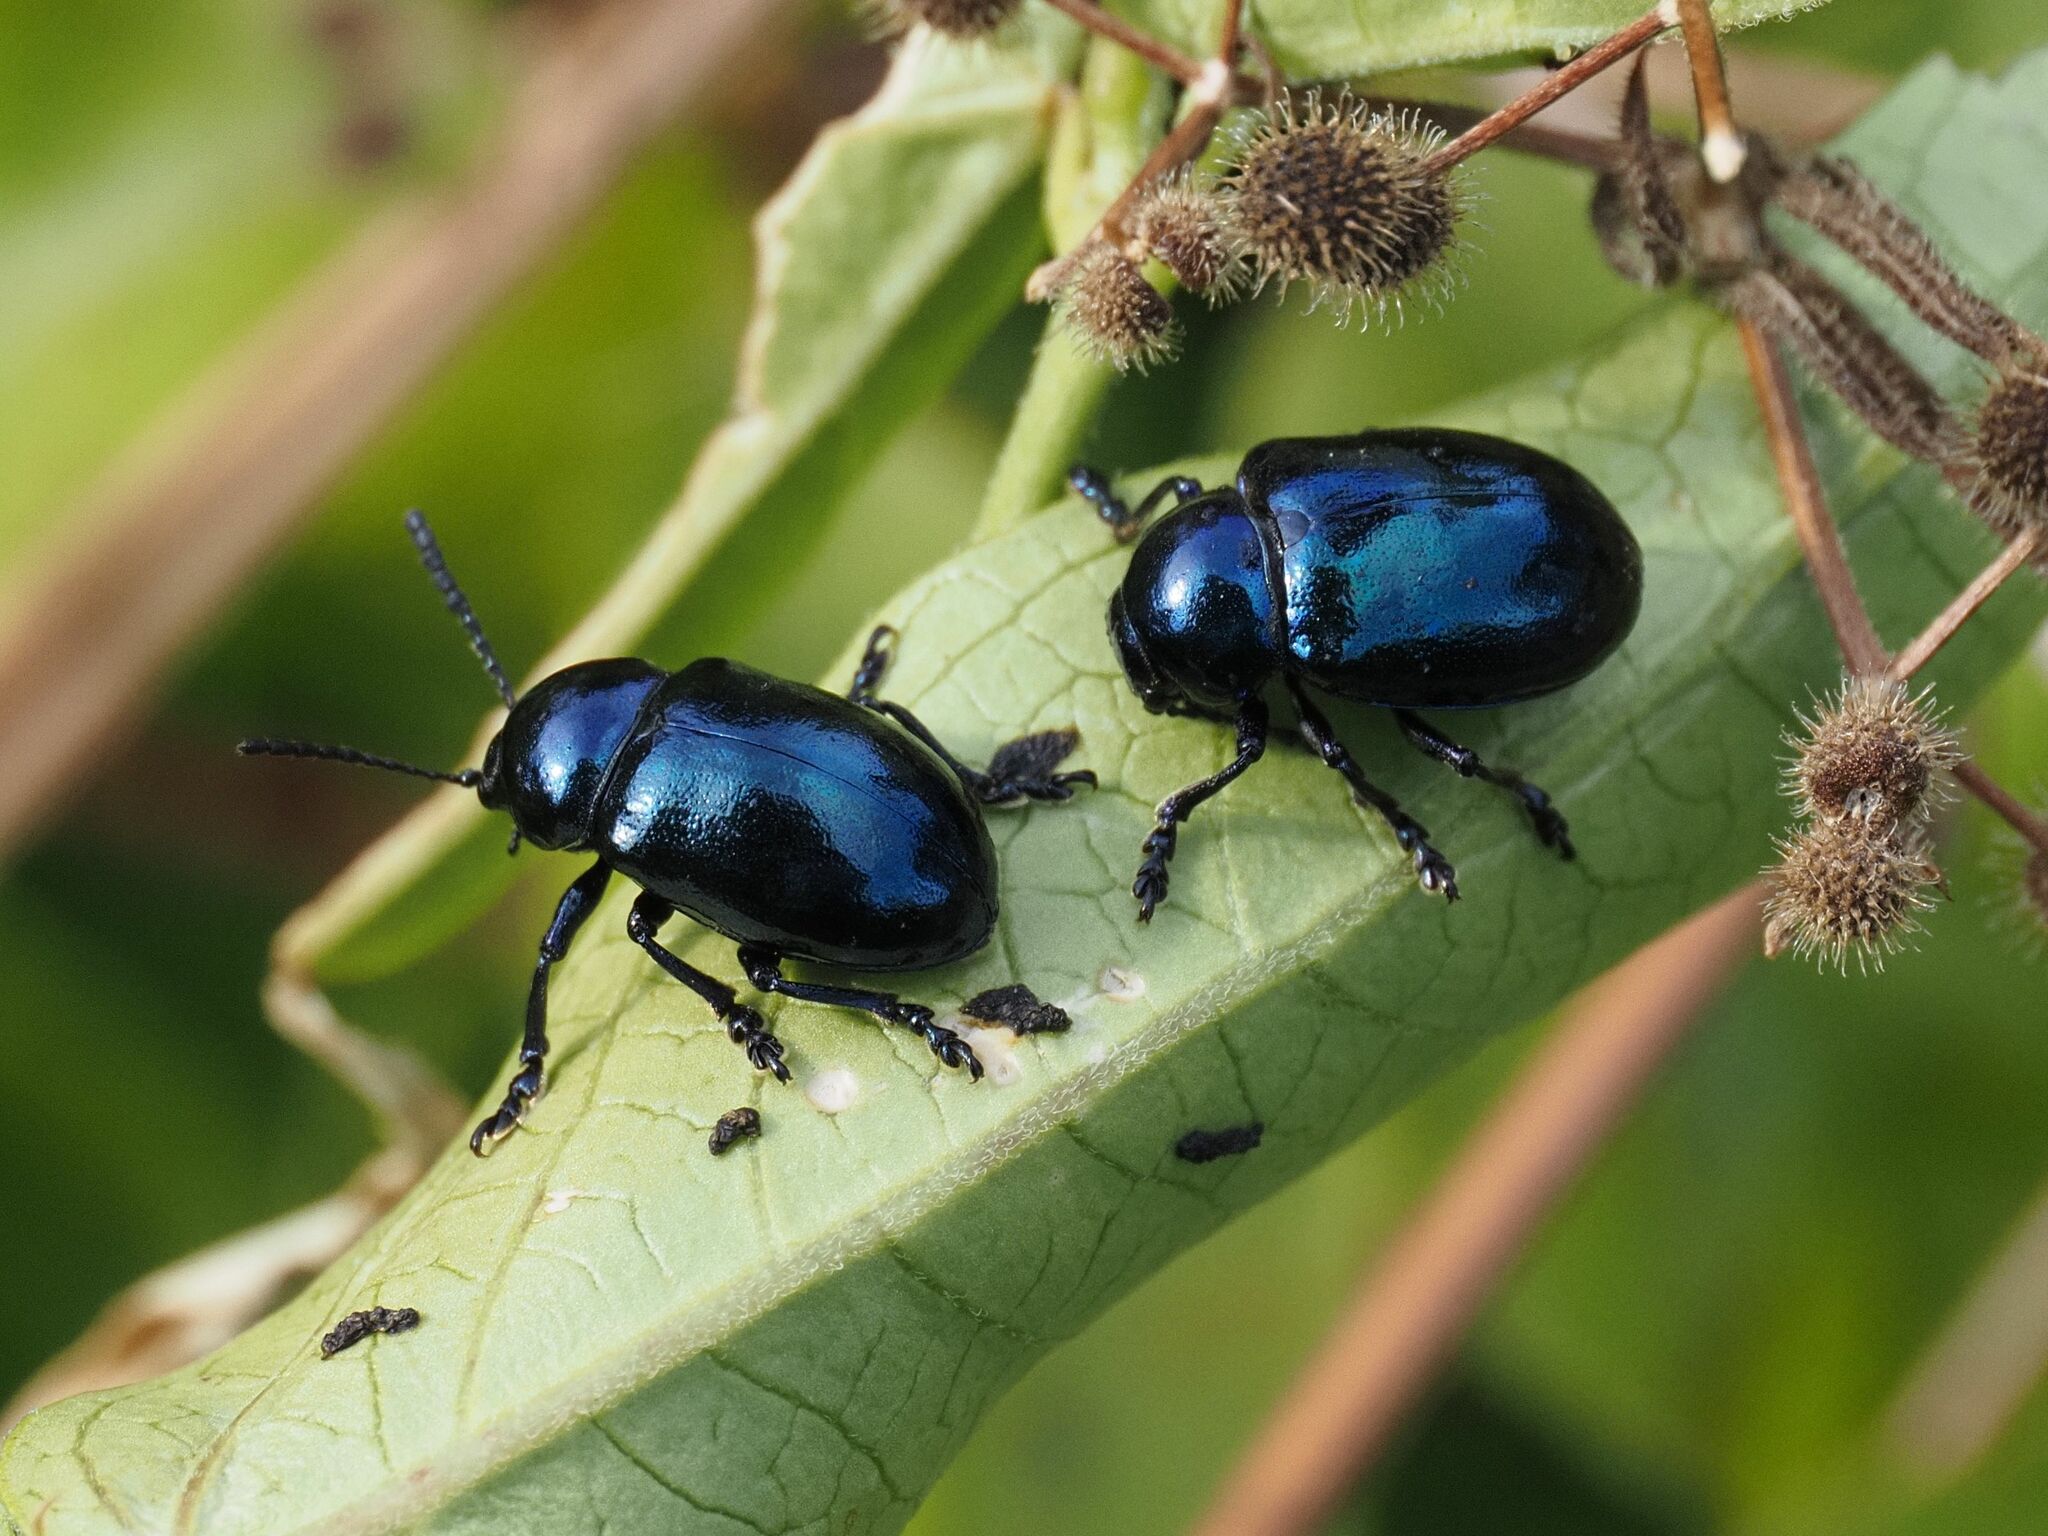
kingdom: Animalia
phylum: Arthropoda
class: Insecta
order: Coleoptera
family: Chrysomelidae
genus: Chrysochus
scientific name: Chrysochus asclepiadeus
